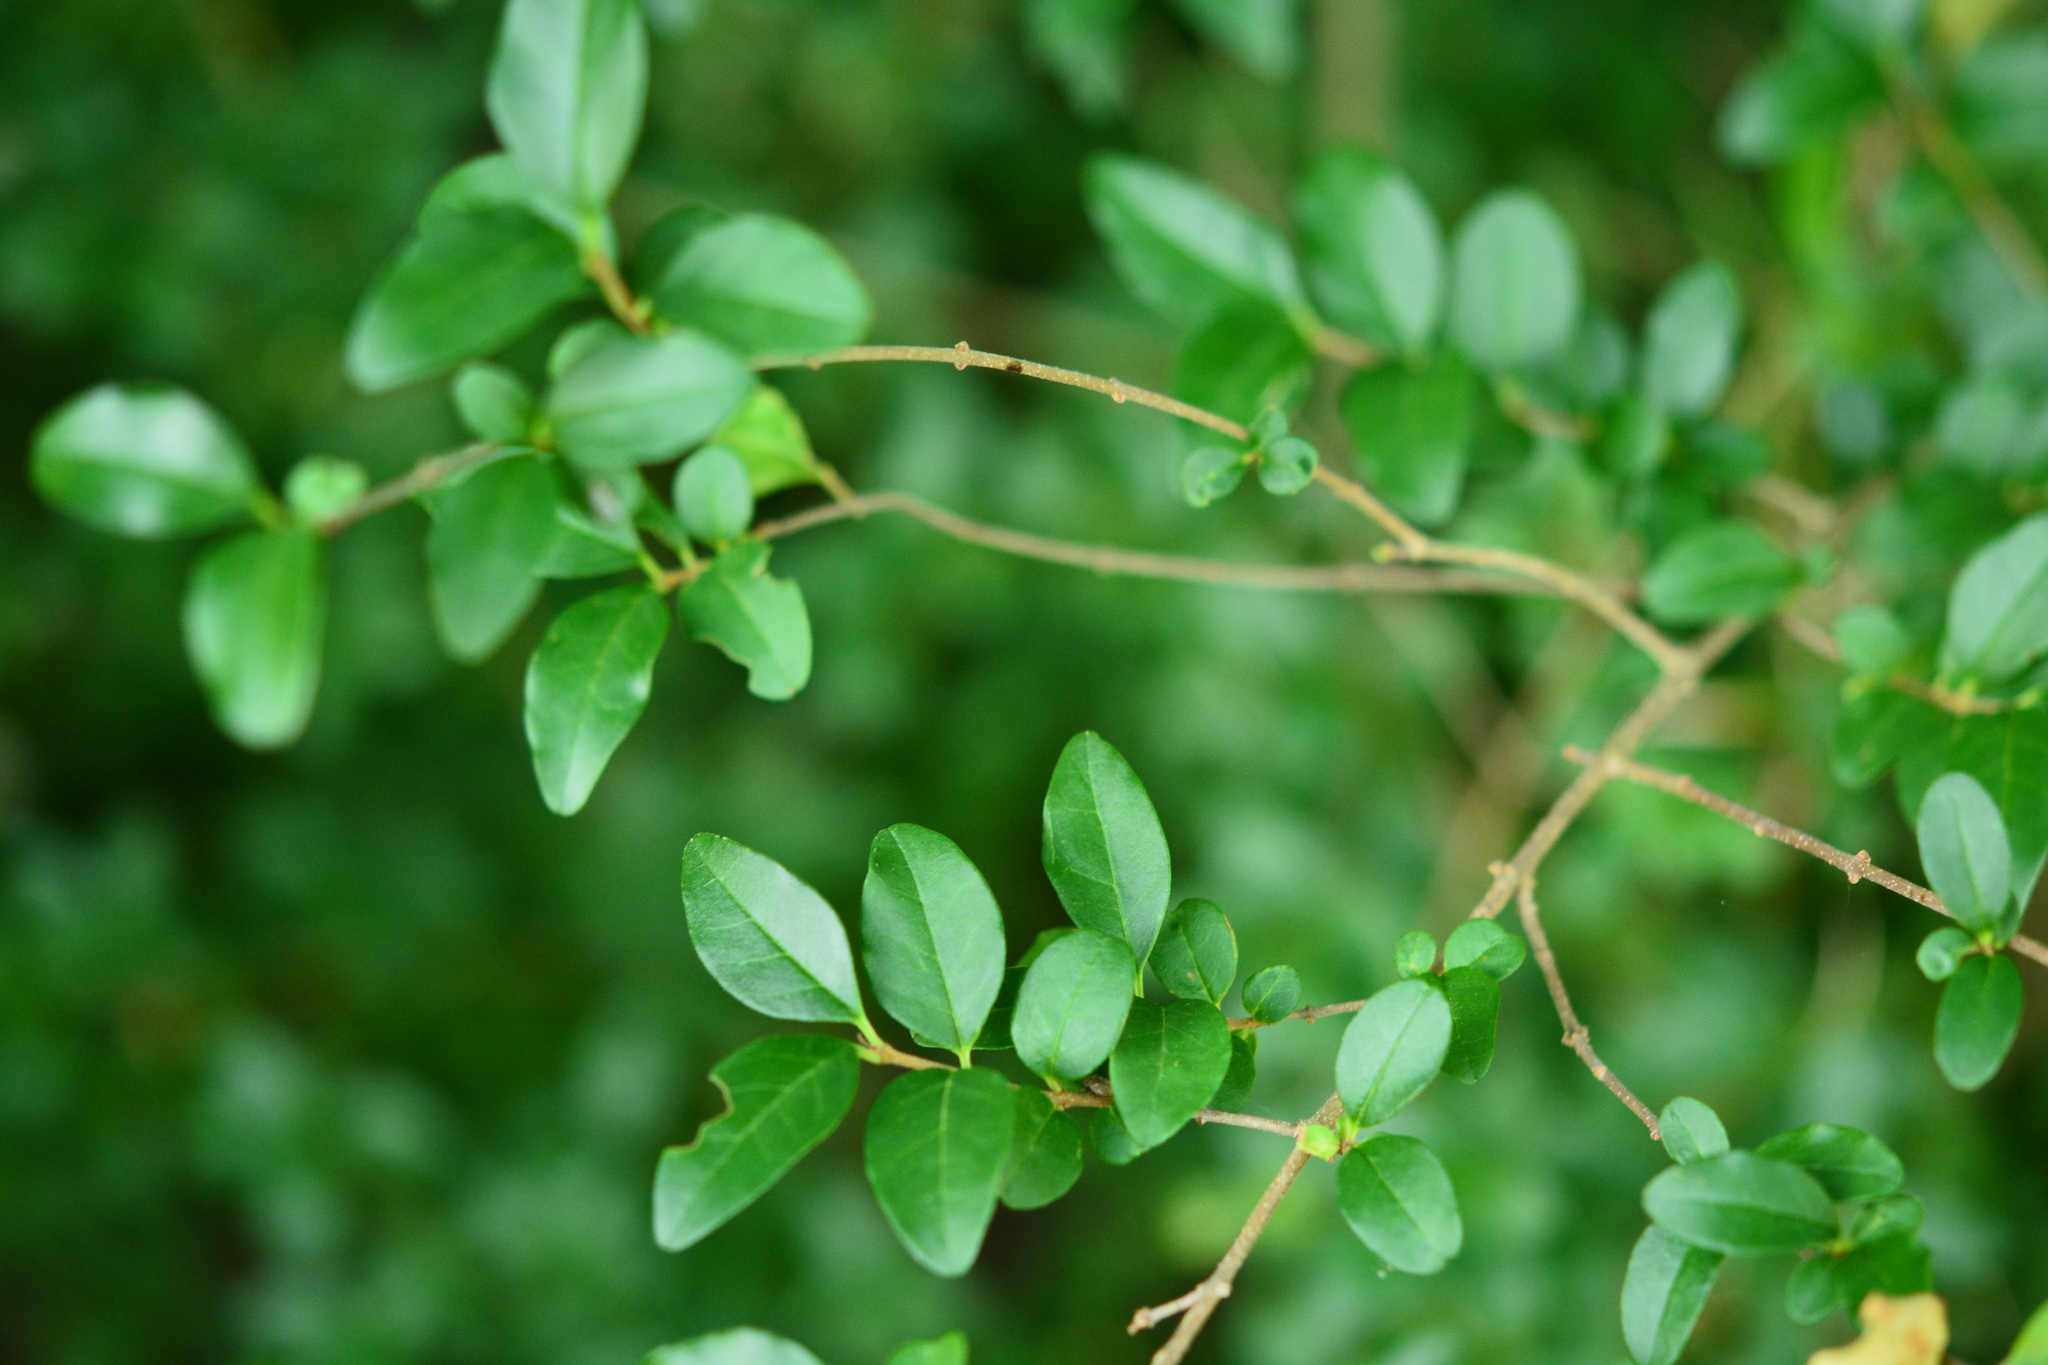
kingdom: Plantae
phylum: Tracheophyta
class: Magnoliopsida
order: Lamiales
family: Oleaceae
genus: Ligustrum
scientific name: Ligustrum sinense
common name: Chinese privet
